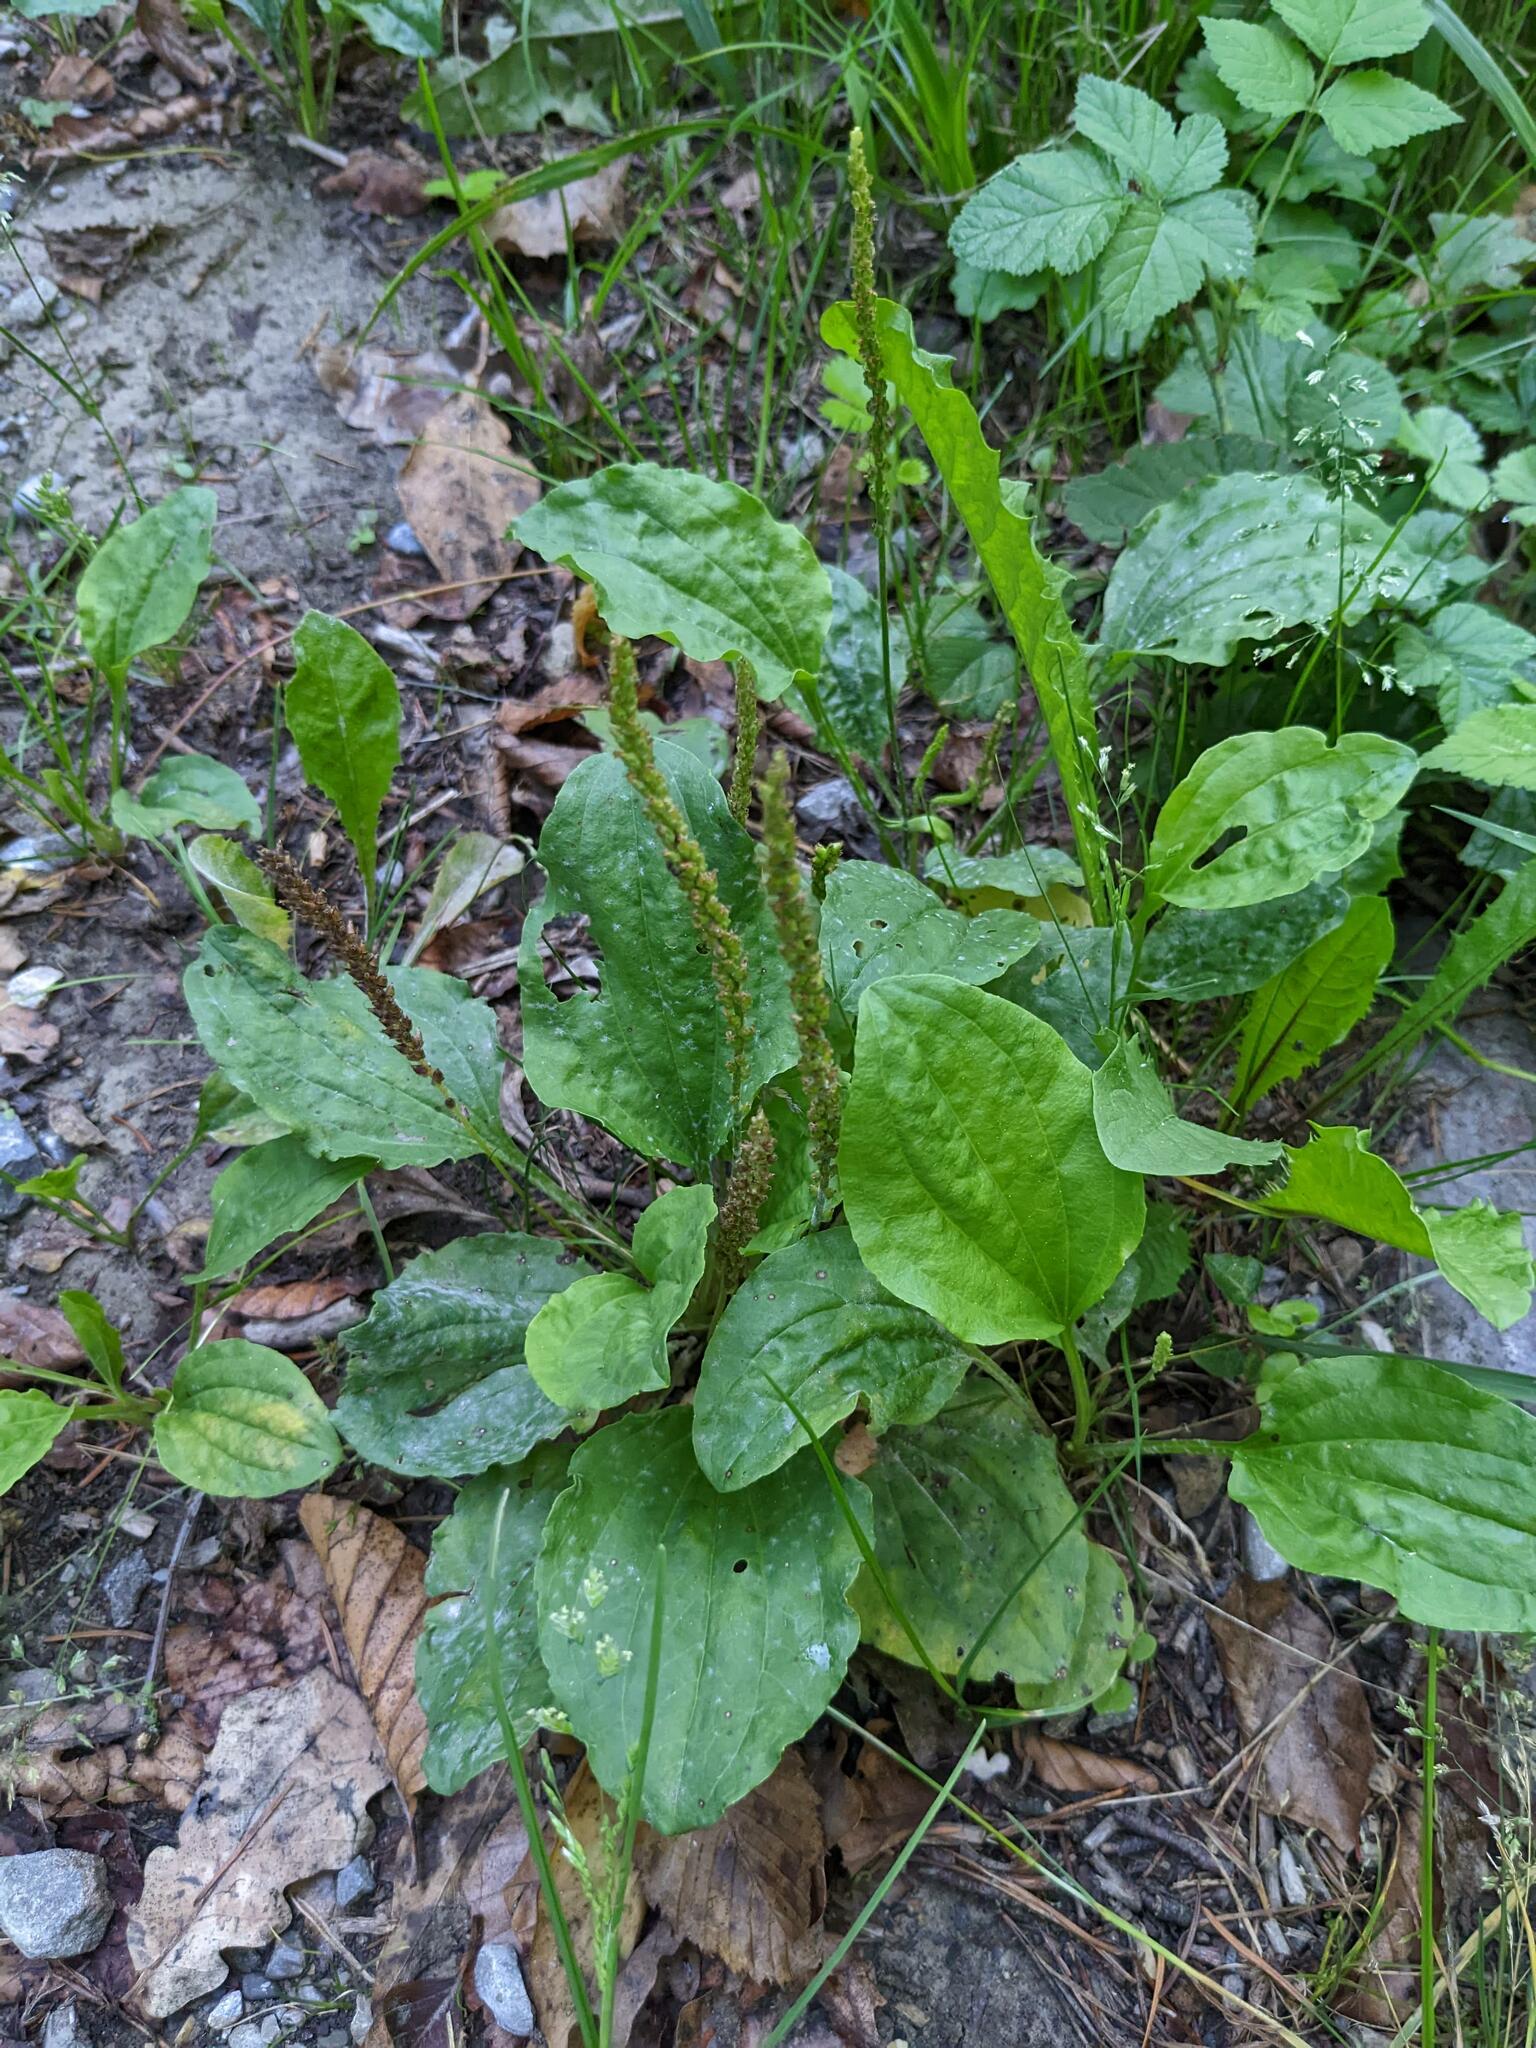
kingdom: Plantae
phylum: Tracheophyta
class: Magnoliopsida
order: Lamiales
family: Plantaginaceae
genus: Plantago
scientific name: Plantago major
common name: Common plantain
